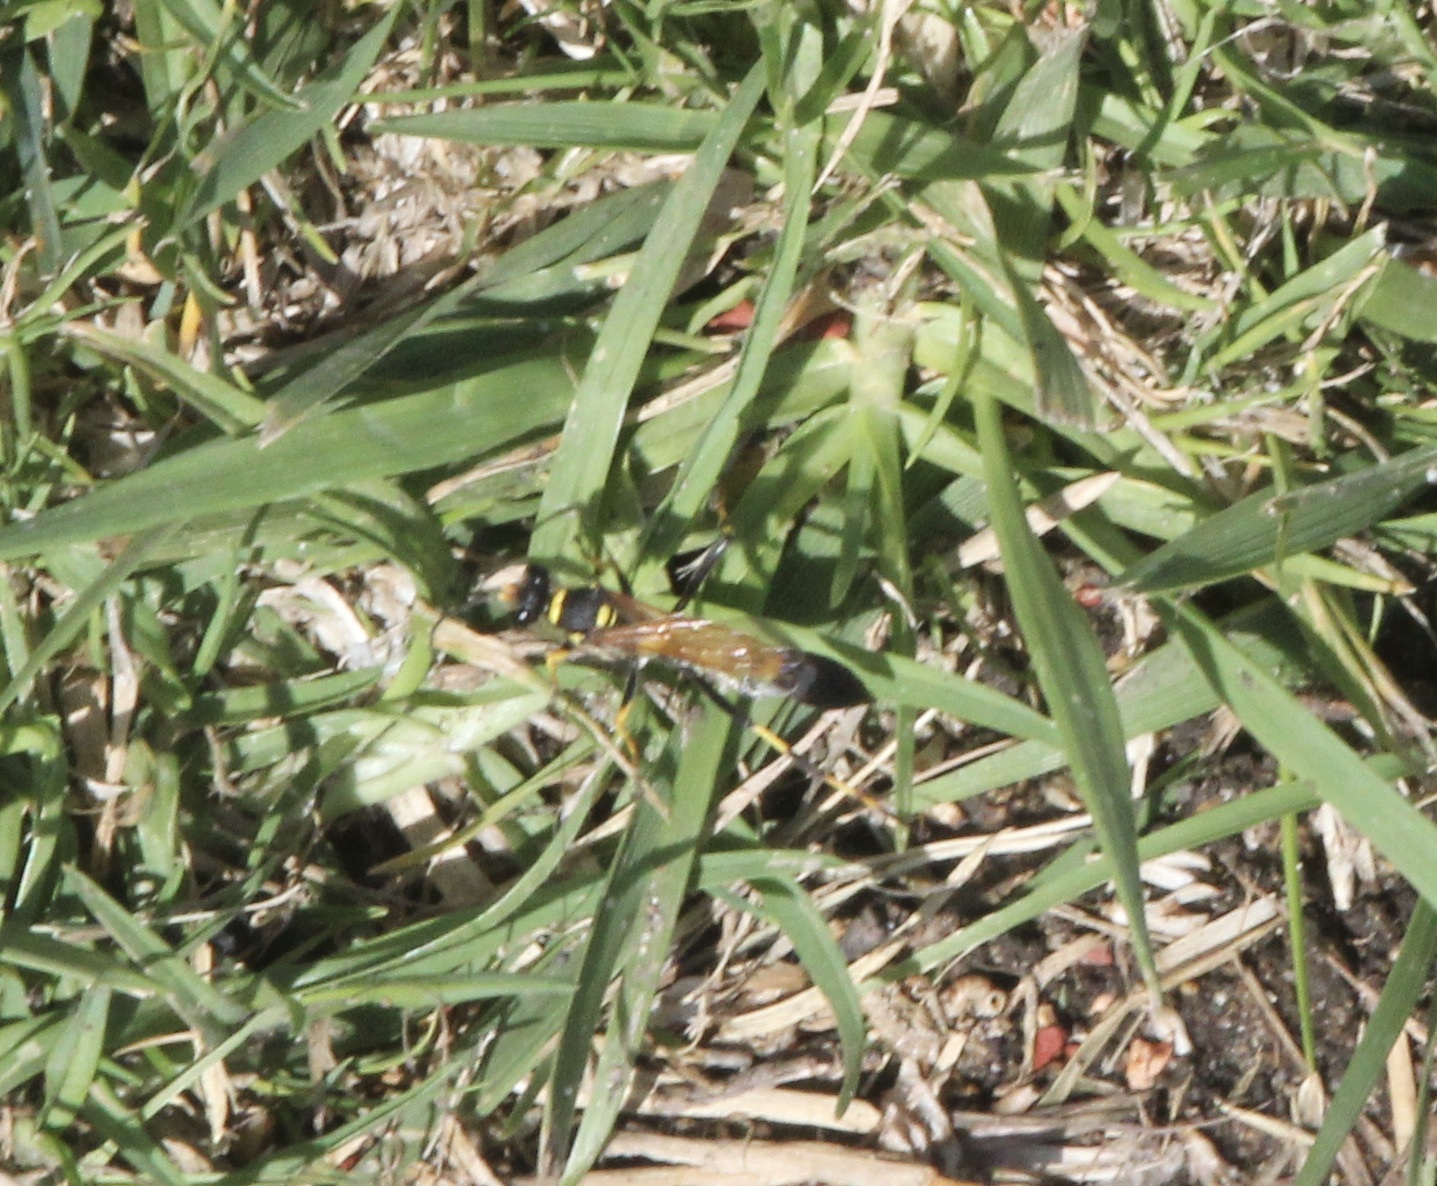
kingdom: Animalia
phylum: Arthropoda
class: Insecta
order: Hymenoptera
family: Sphecidae
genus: Sceliphron
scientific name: Sceliphron caementarium
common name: Mud dauber
